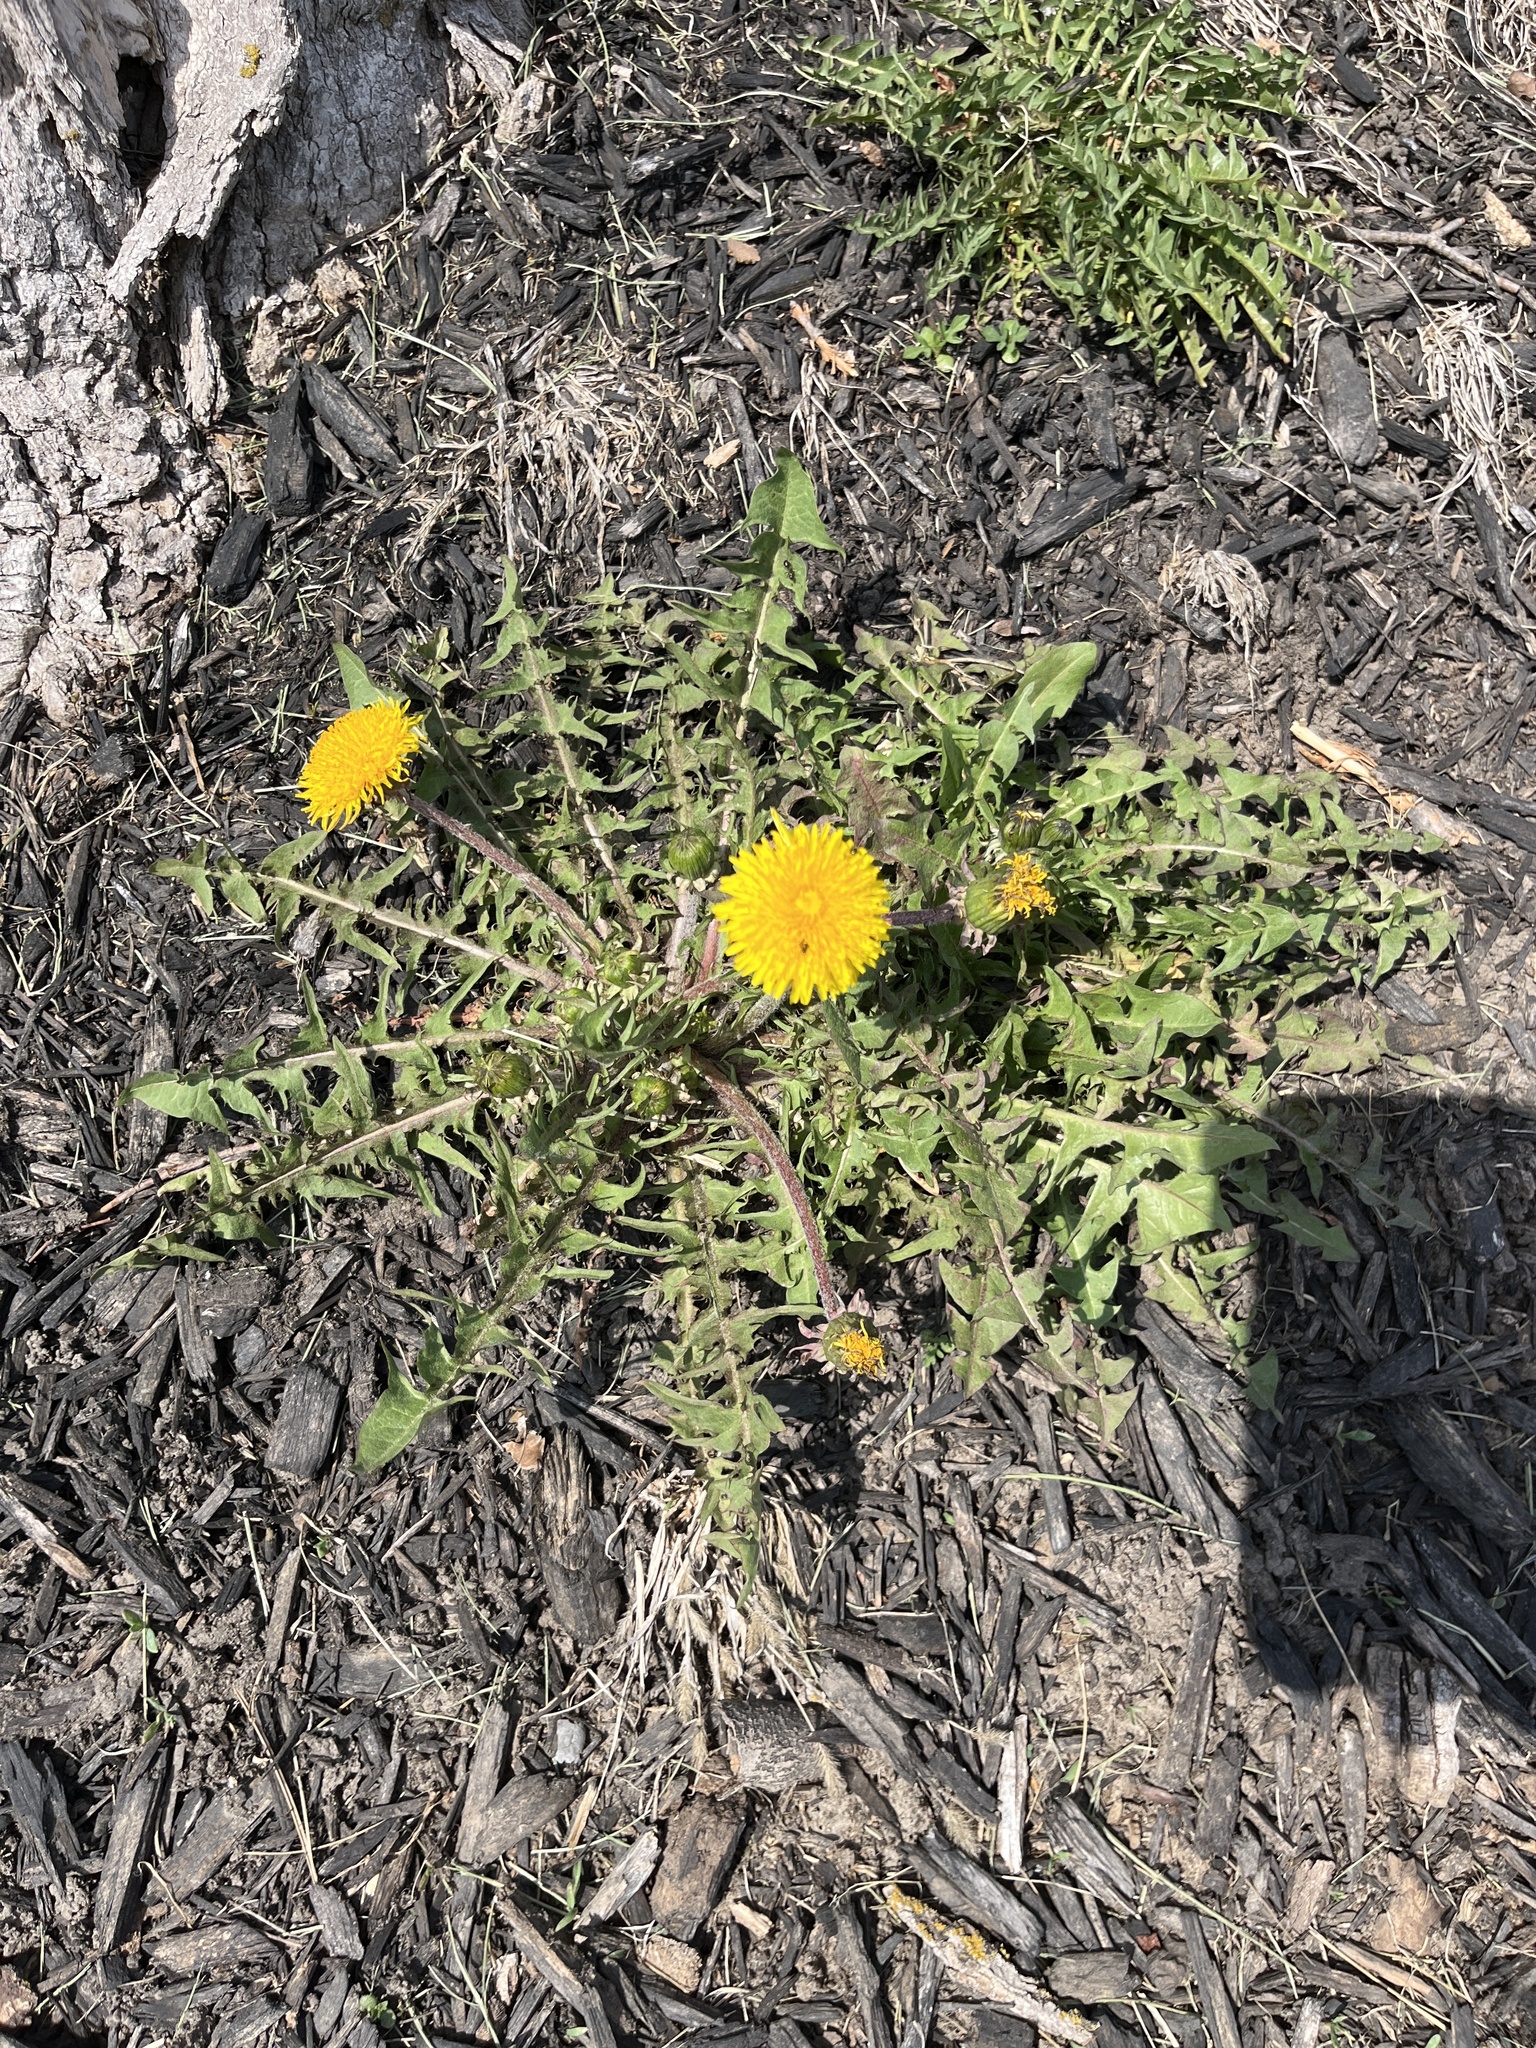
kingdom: Plantae
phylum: Tracheophyta
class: Magnoliopsida
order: Asterales
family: Asteraceae
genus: Taraxacum
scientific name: Taraxacum officinale
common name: Common dandelion
